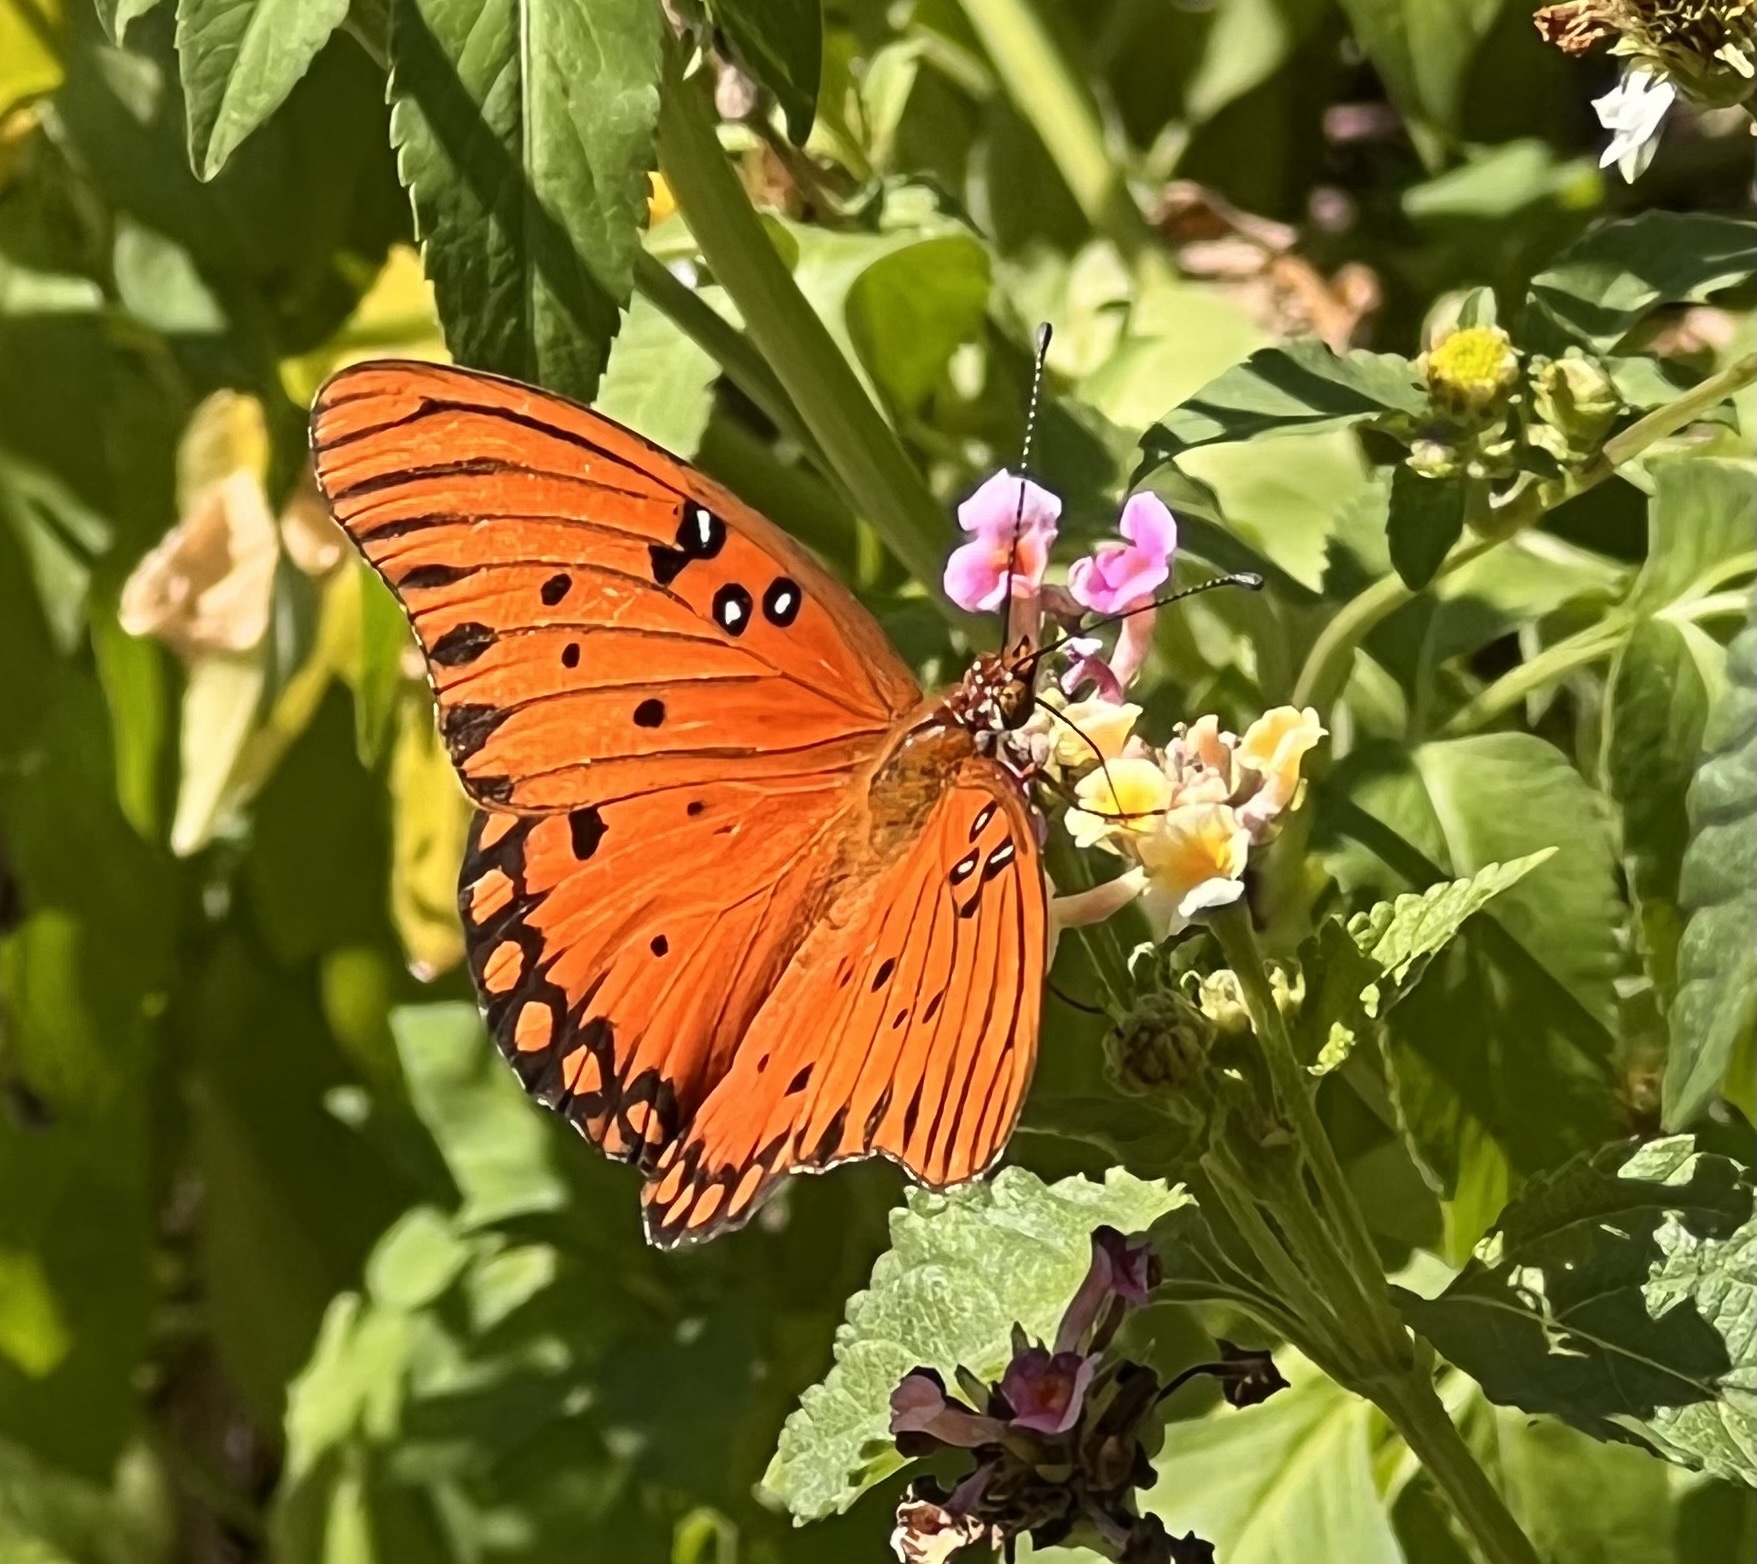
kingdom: Animalia
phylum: Arthropoda
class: Insecta
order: Lepidoptera
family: Nymphalidae
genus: Dione
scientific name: Dione vanillae
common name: Gulf fritillary
